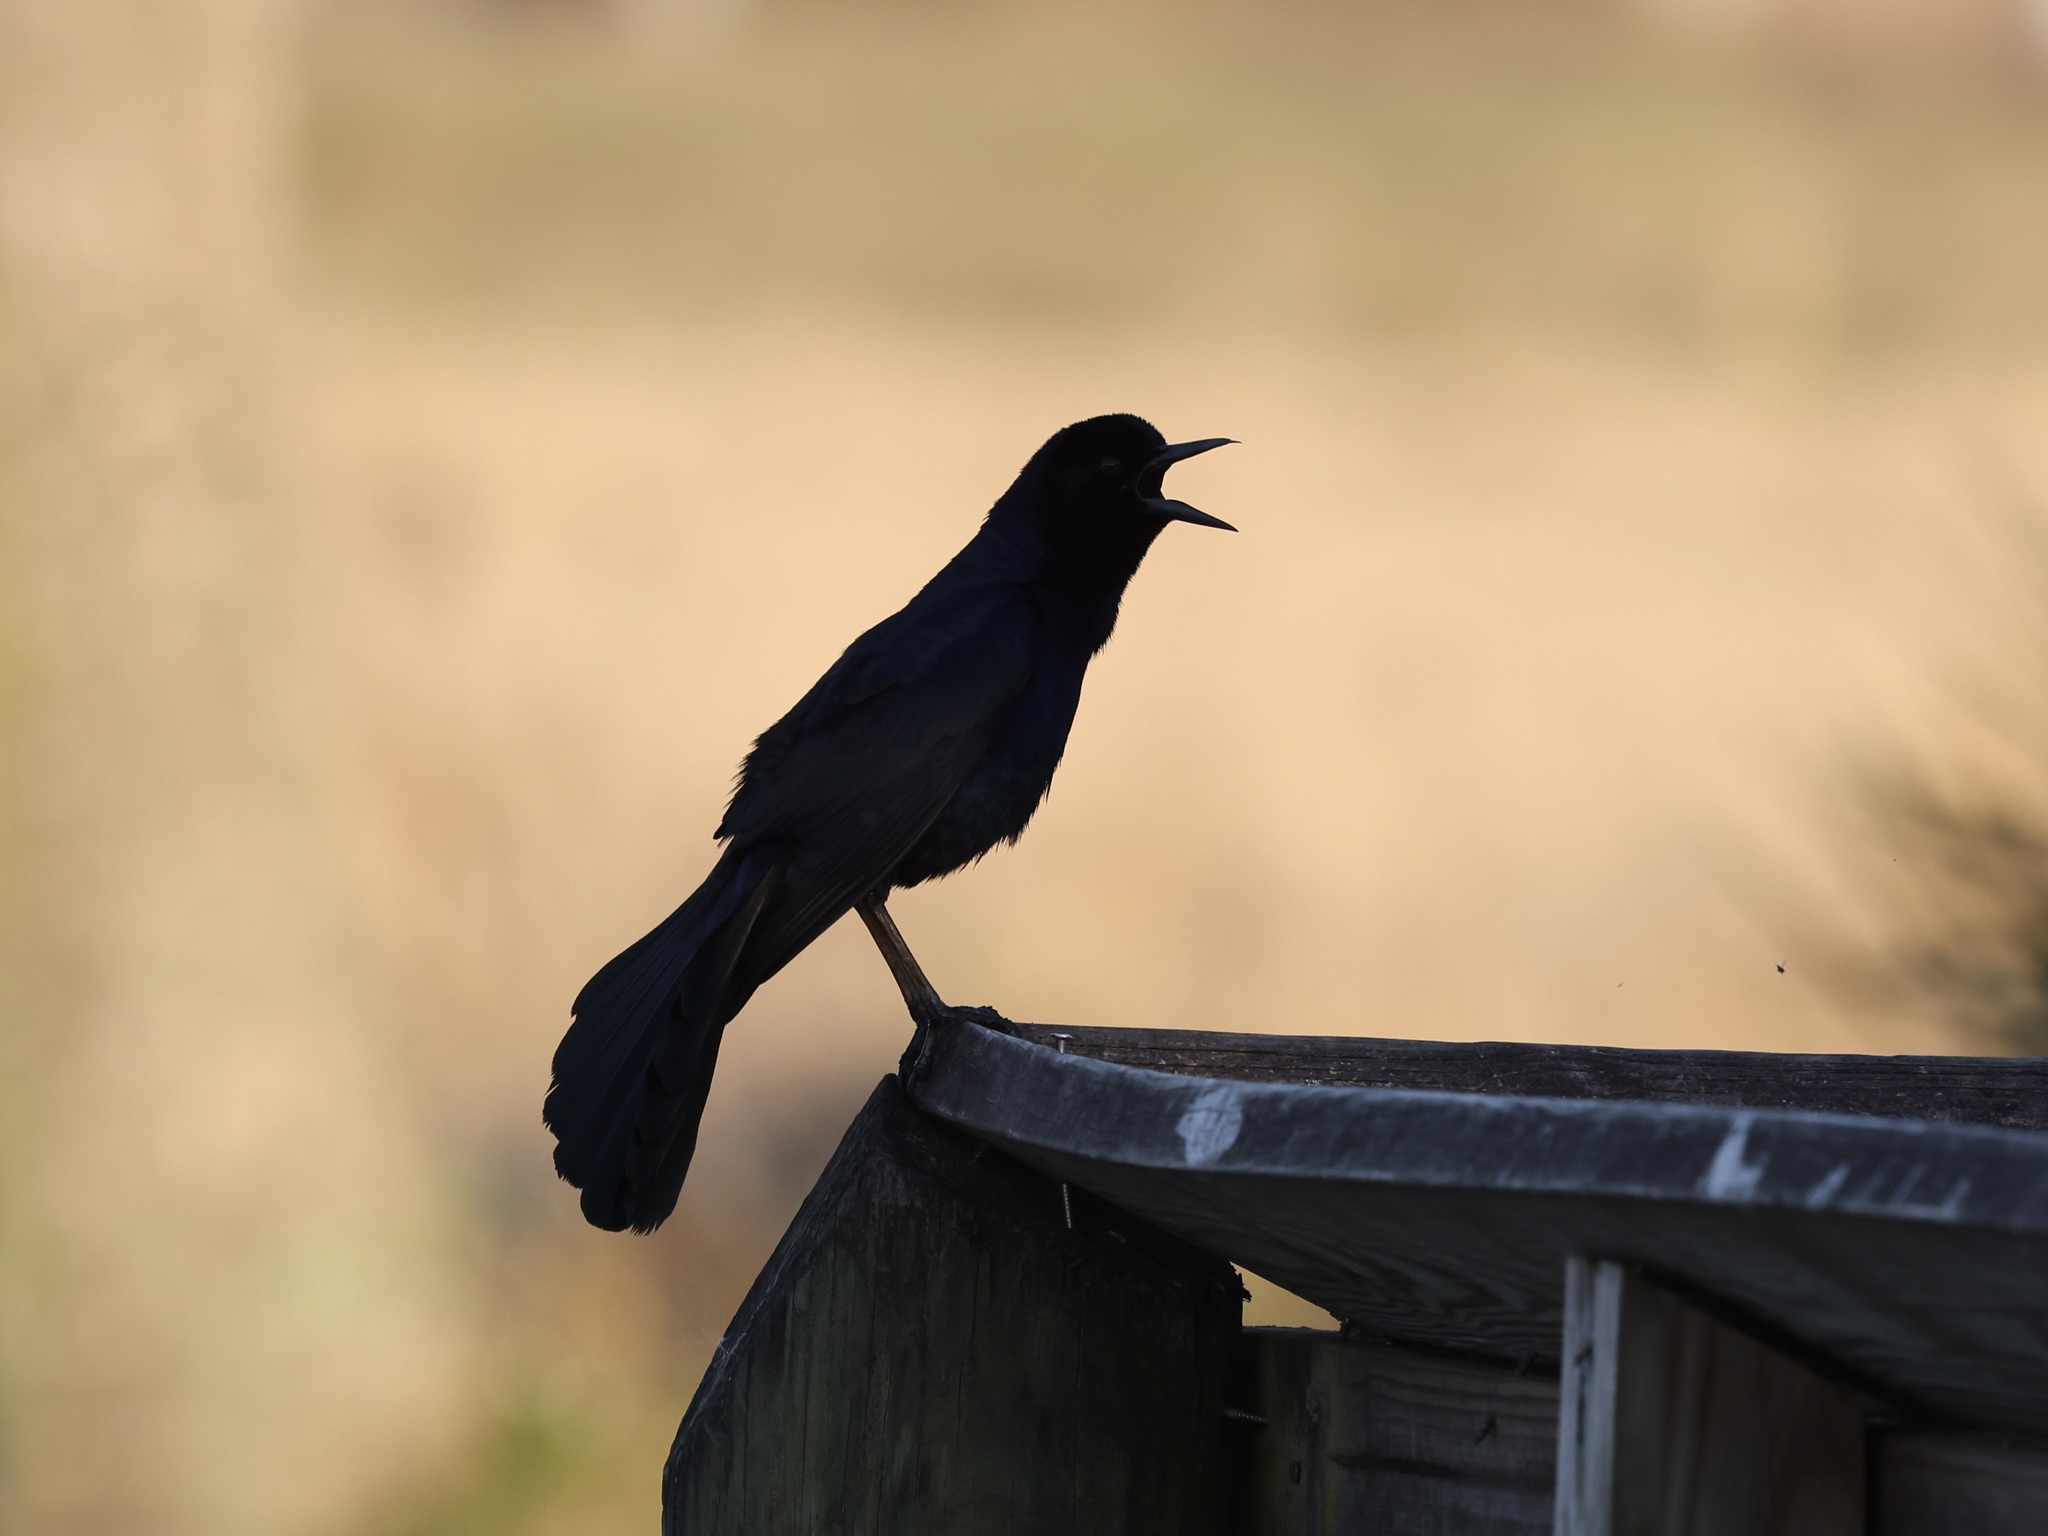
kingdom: Animalia
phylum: Chordata
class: Aves
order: Passeriformes
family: Icteridae
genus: Quiscalus
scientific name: Quiscalus major
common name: Boat-tailed grackle
